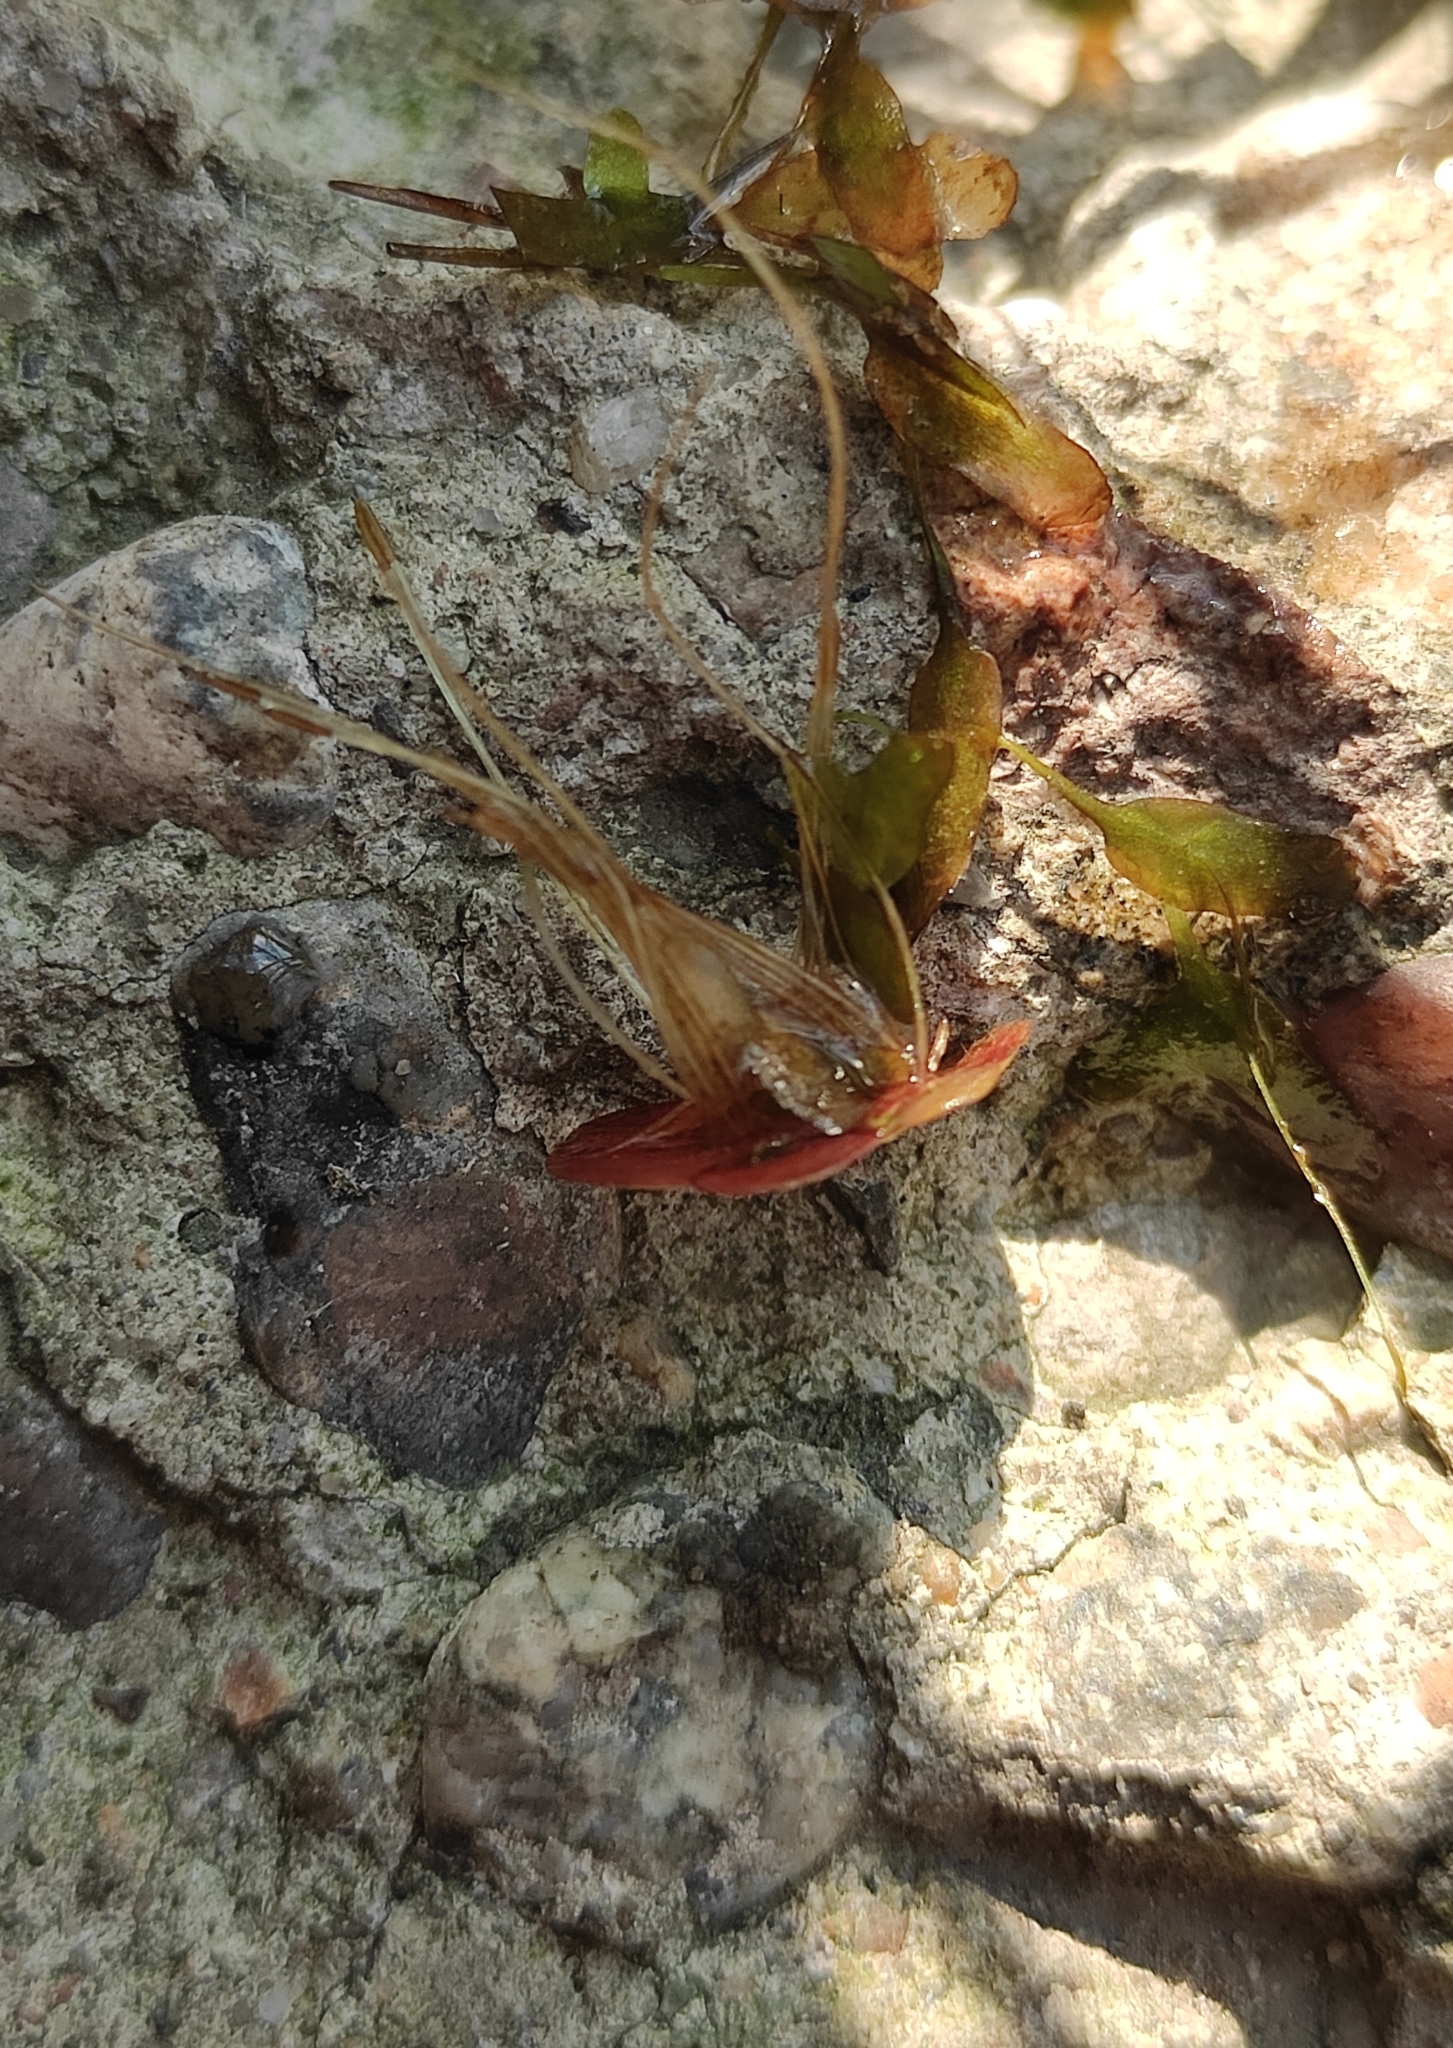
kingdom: Plantae
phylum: Tracheophyta
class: Liliopsida
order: Alismatales
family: Araceae
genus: Spirodela
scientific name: Spirodela polyrhiza
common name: Great duckweed
